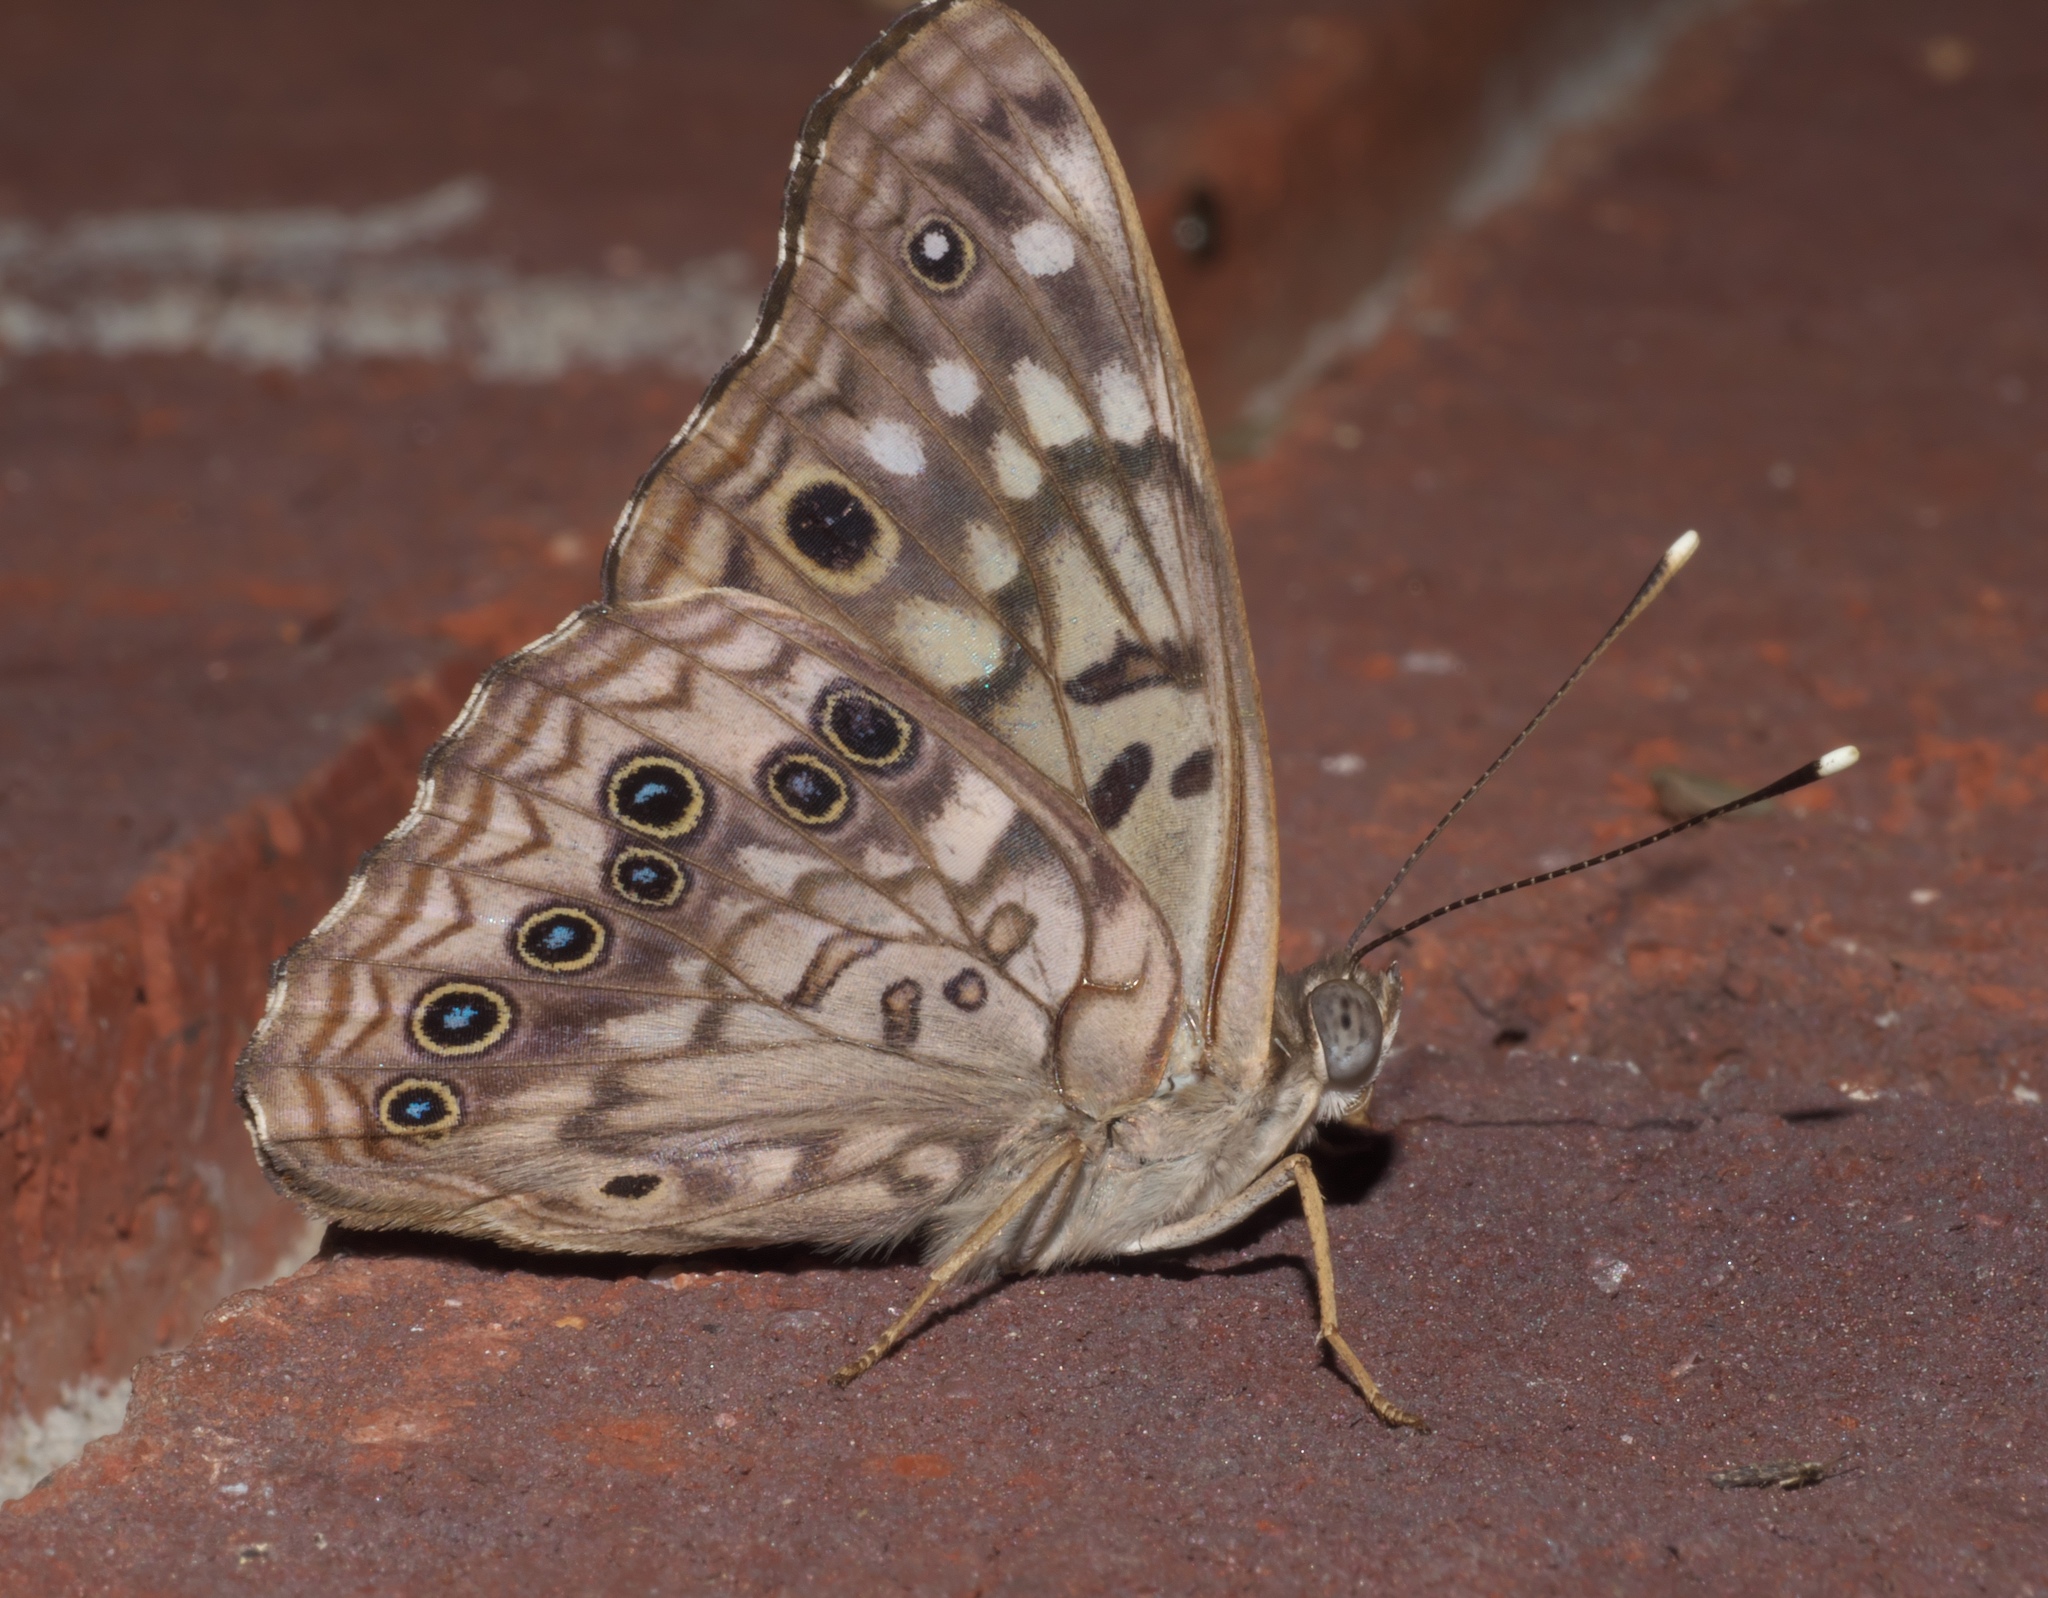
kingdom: Animalia
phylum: Arthropoda
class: Insecta
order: Lepidoptera
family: Nymphalidae
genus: Asterocampa
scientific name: Asterocampa celtis
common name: Hackberry emperor
